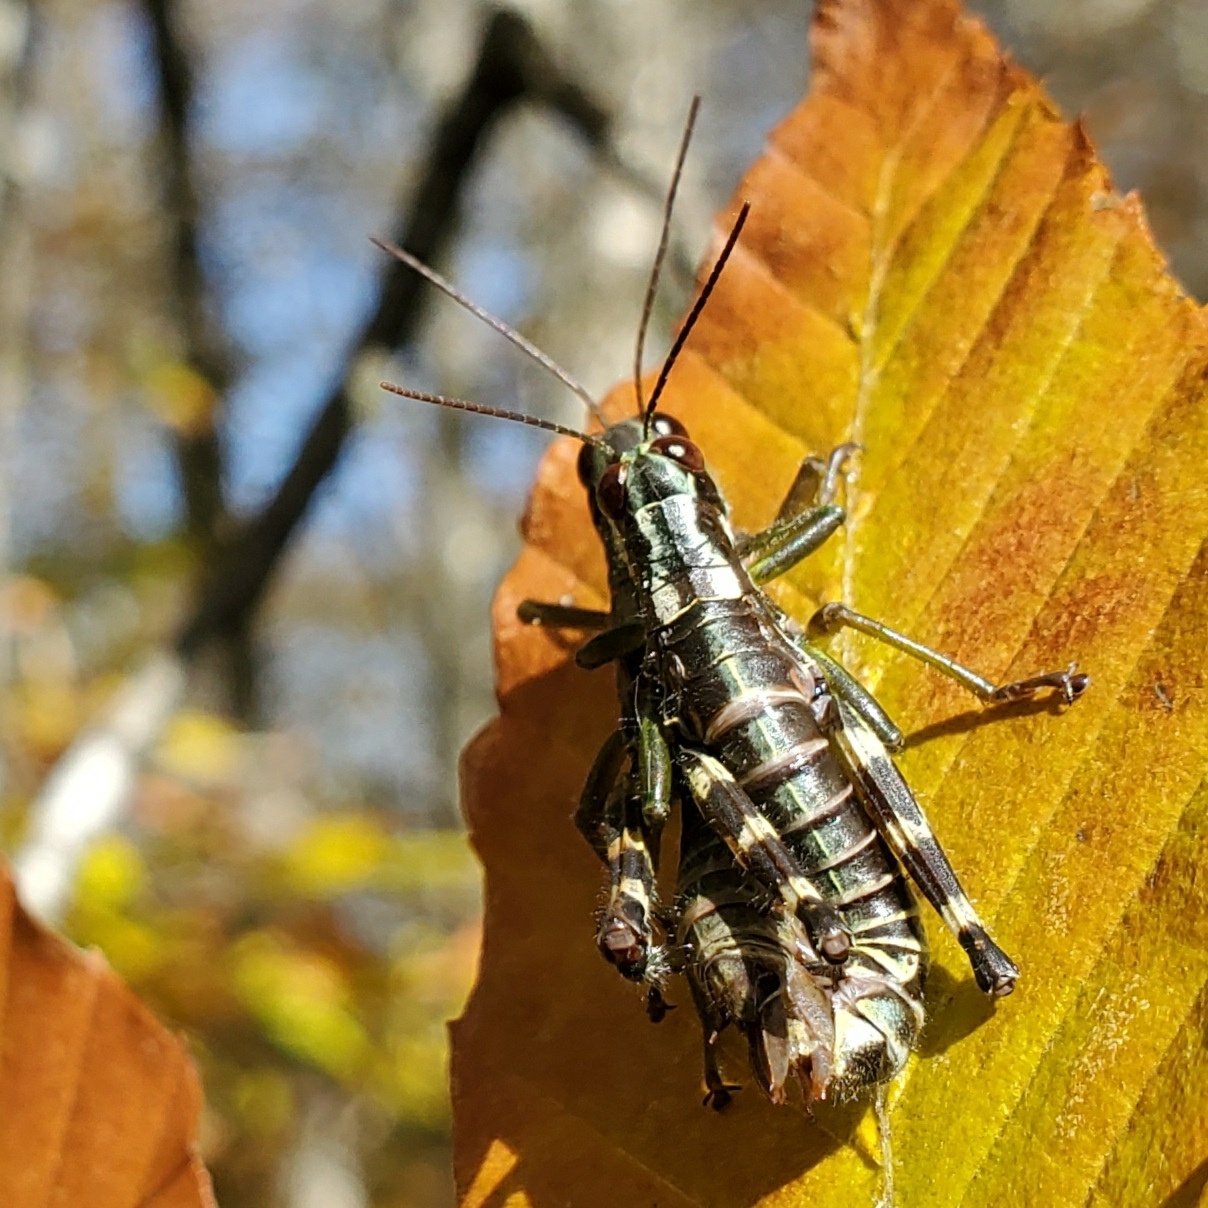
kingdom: Animalia
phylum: Arthropoda
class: Insecta
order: Orthoptera
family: Acrididae
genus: Booneacris
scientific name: Booneacris glacialis
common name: Wingless mountain grasshopper
